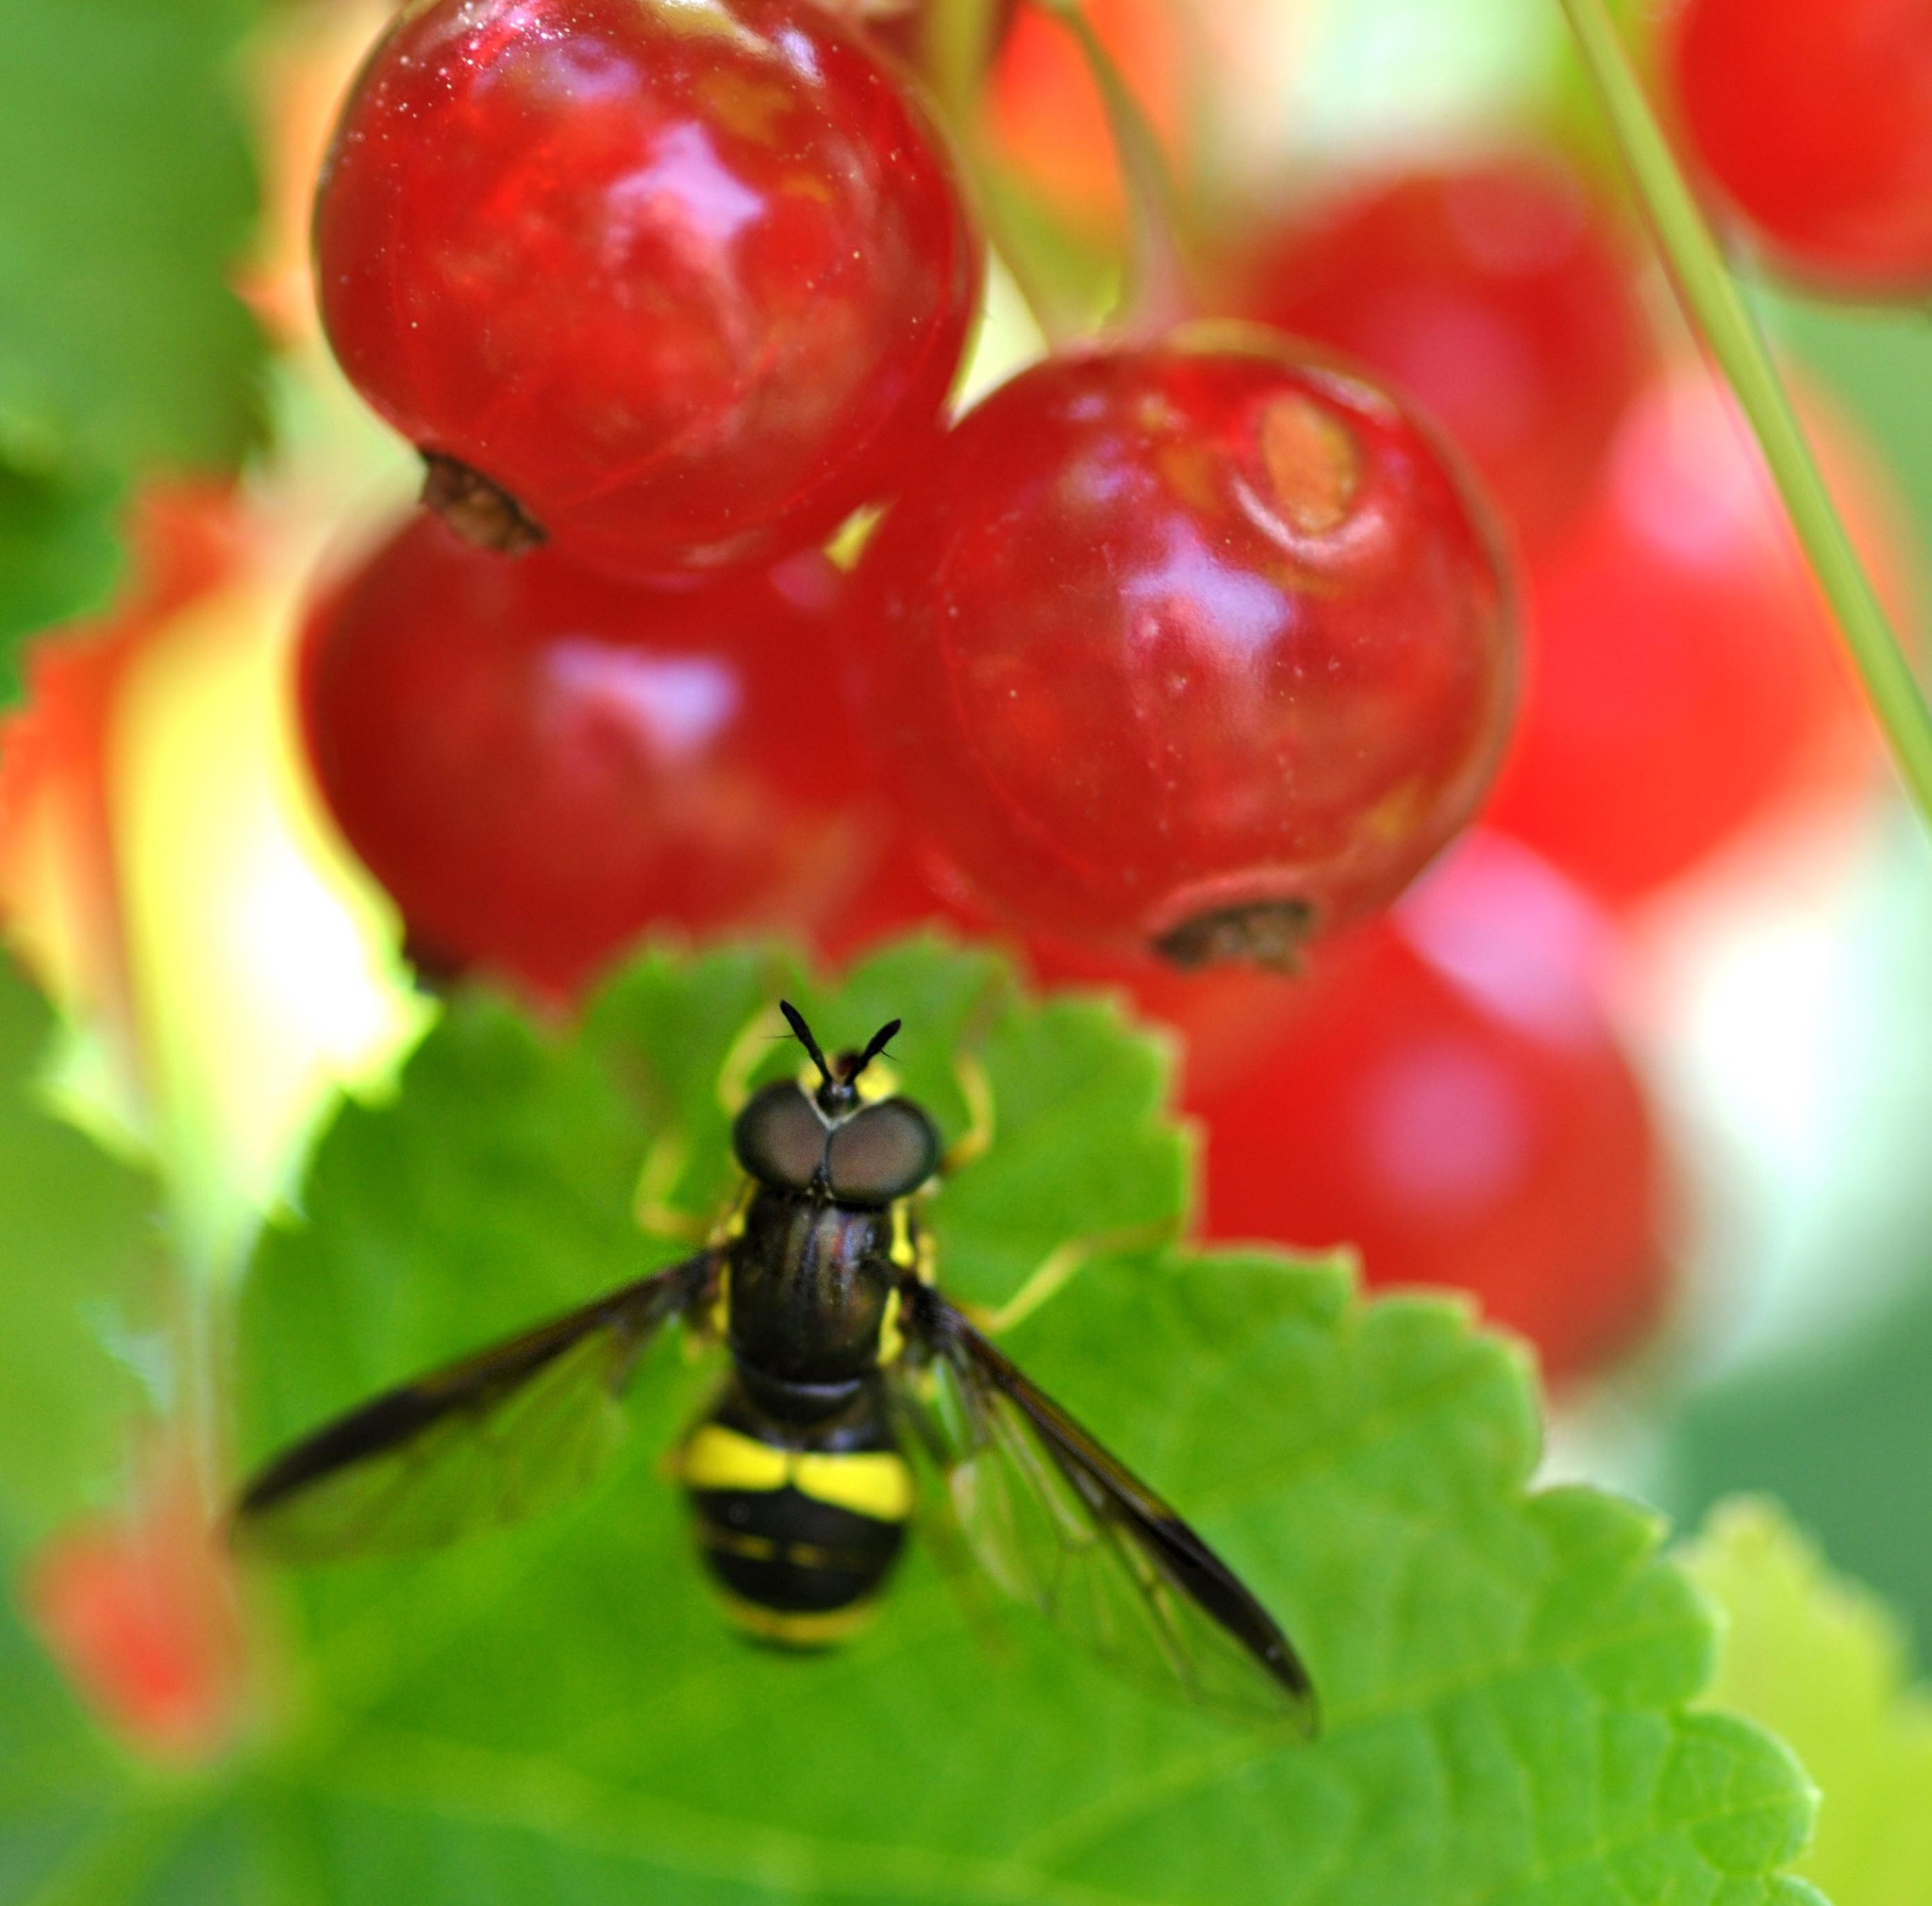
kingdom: Animalia
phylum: Arthropoda
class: Insecta
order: Diptera
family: Syrphidae
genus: Chrysotoxum
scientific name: Chrysotoxum bicincta
